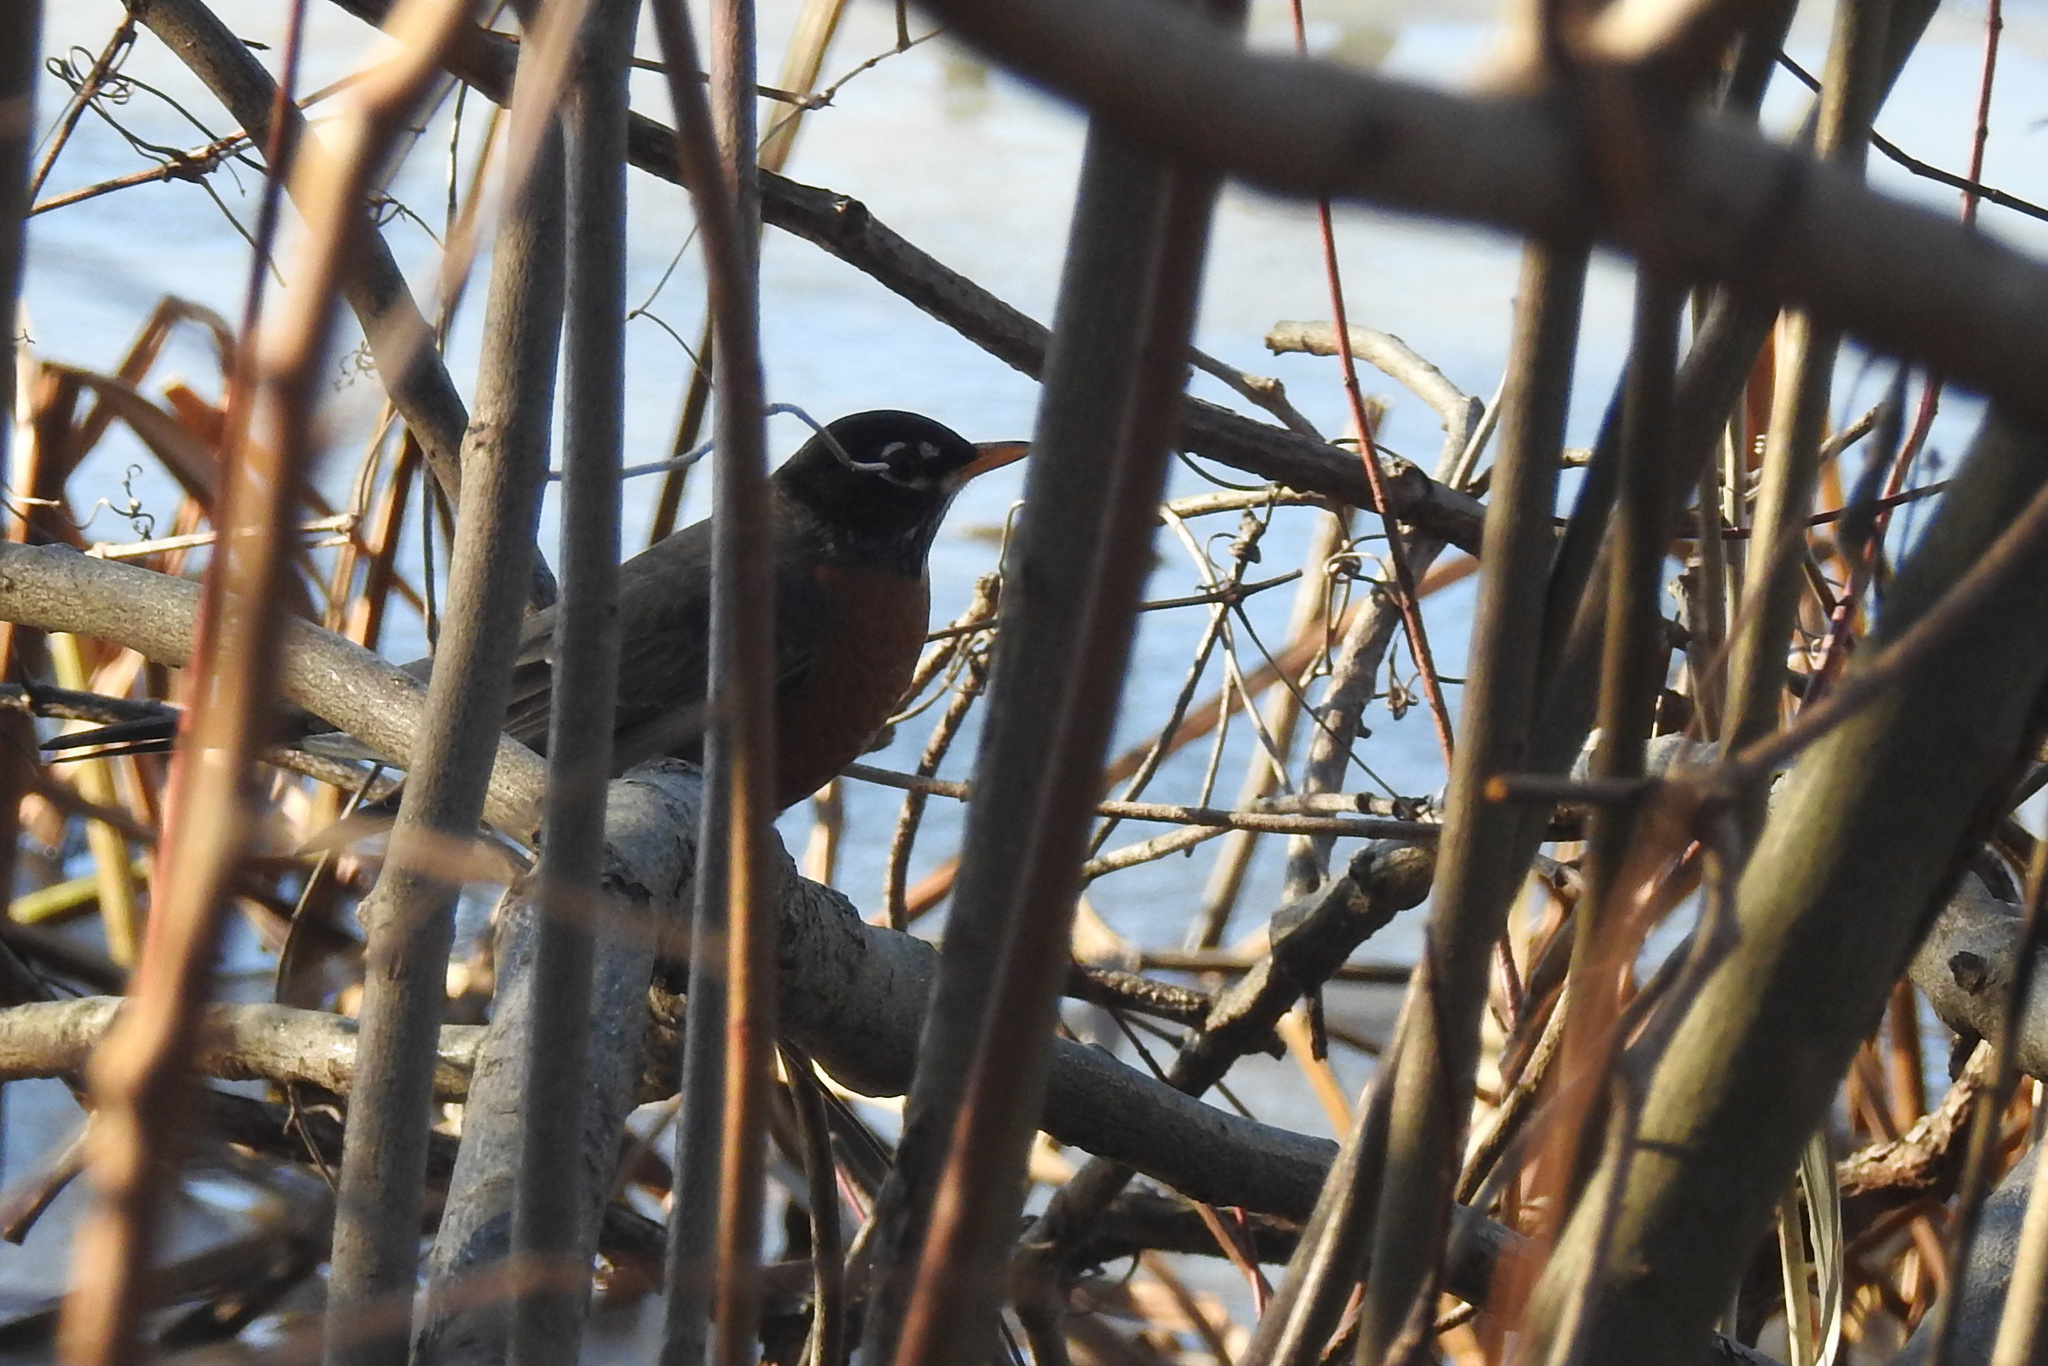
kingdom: Animalia
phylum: Chordata
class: Aves
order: Passeriformes
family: Turdidae
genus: Turdus
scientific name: Turdus migratorius
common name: American robin
